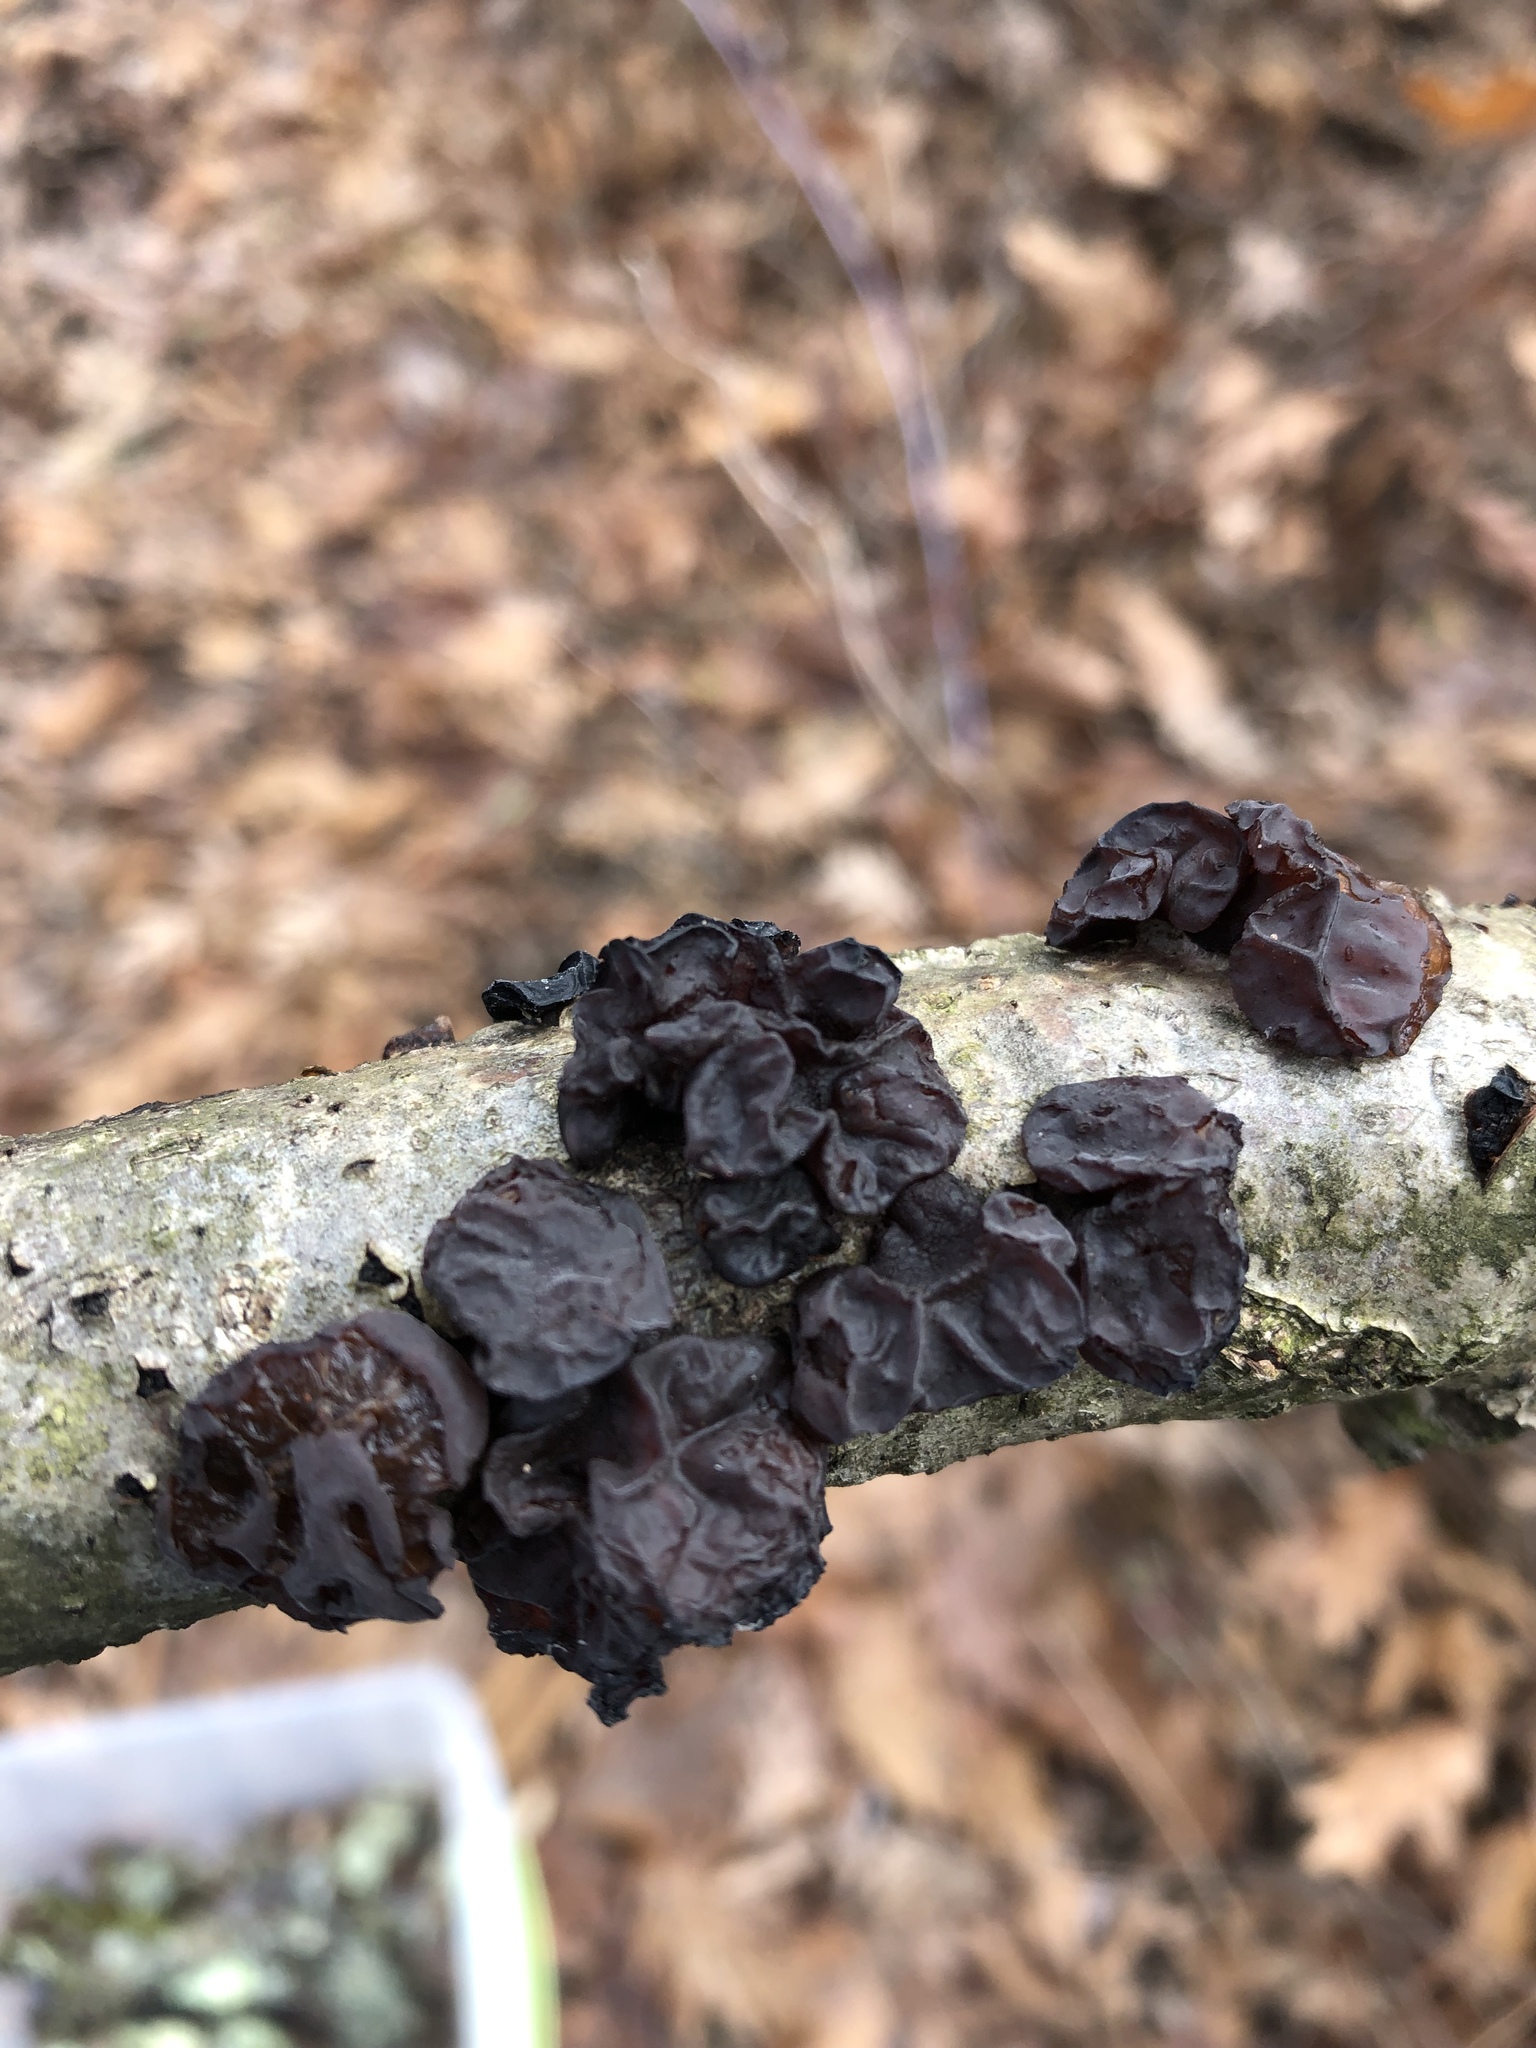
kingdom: Fungi
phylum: Basidiomycota
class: Agaricomycetes
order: Auriculariales
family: Auriculariaceae
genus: Exidia
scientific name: Exidia
